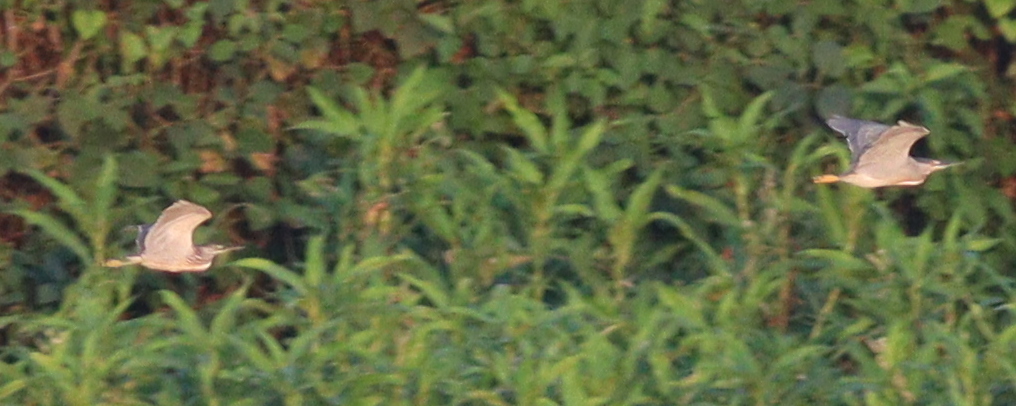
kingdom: Animalia
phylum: Chordata
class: Aves
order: Pelecaniformes
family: Ardeidae
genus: Butorides
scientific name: Butorides striata
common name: Striated heron
